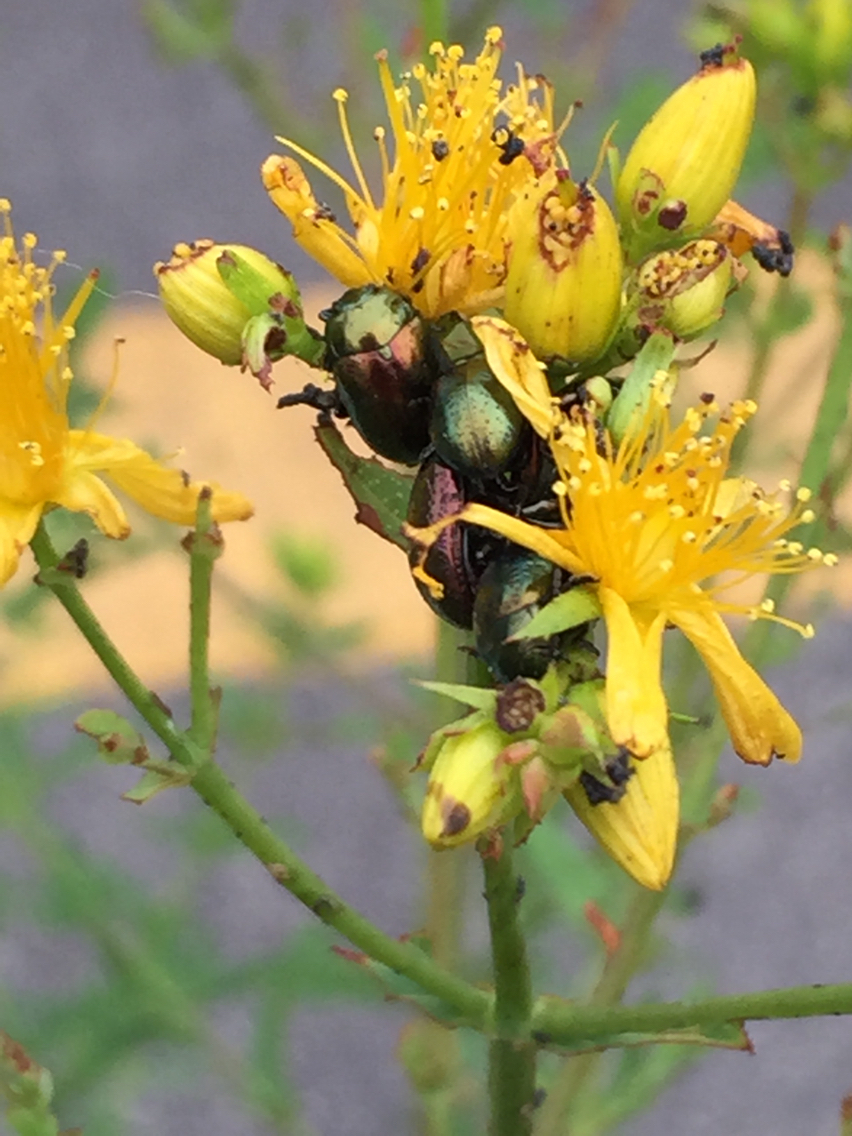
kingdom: Animalia
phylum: Arthropoda
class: Insecta
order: Coleoptera
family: Chrysomelidae
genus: Chrysolina
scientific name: Chrysolina hyperici
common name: St. johnswort beetle
